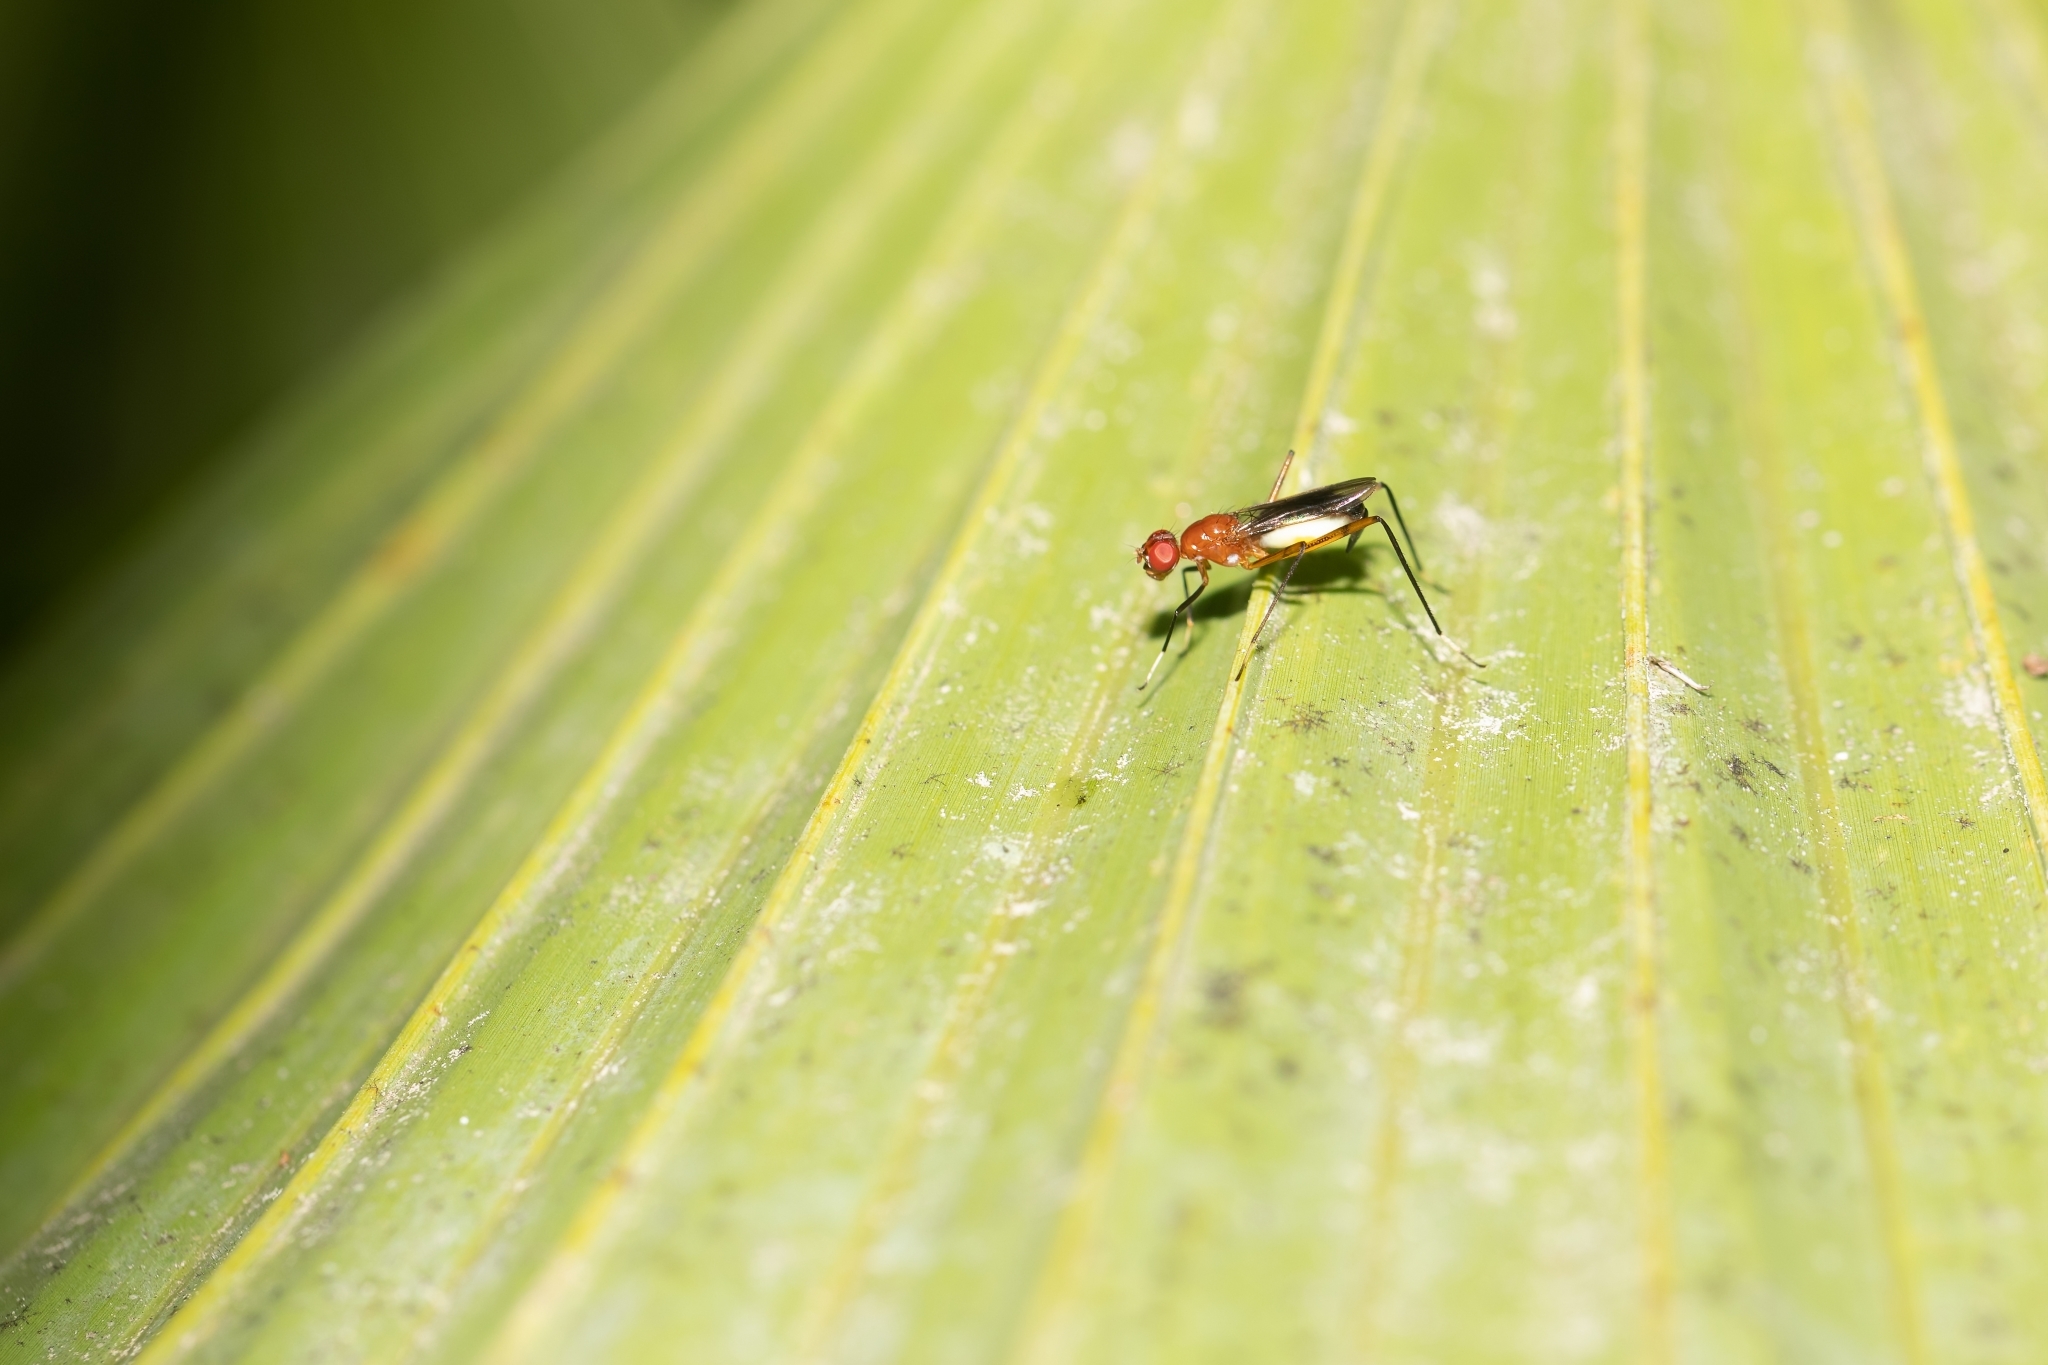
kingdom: Animalia
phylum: Arthropoda
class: Insecta
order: Diptera
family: Micropezidae
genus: Grallipeza
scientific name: Grallipeza nebulosa
